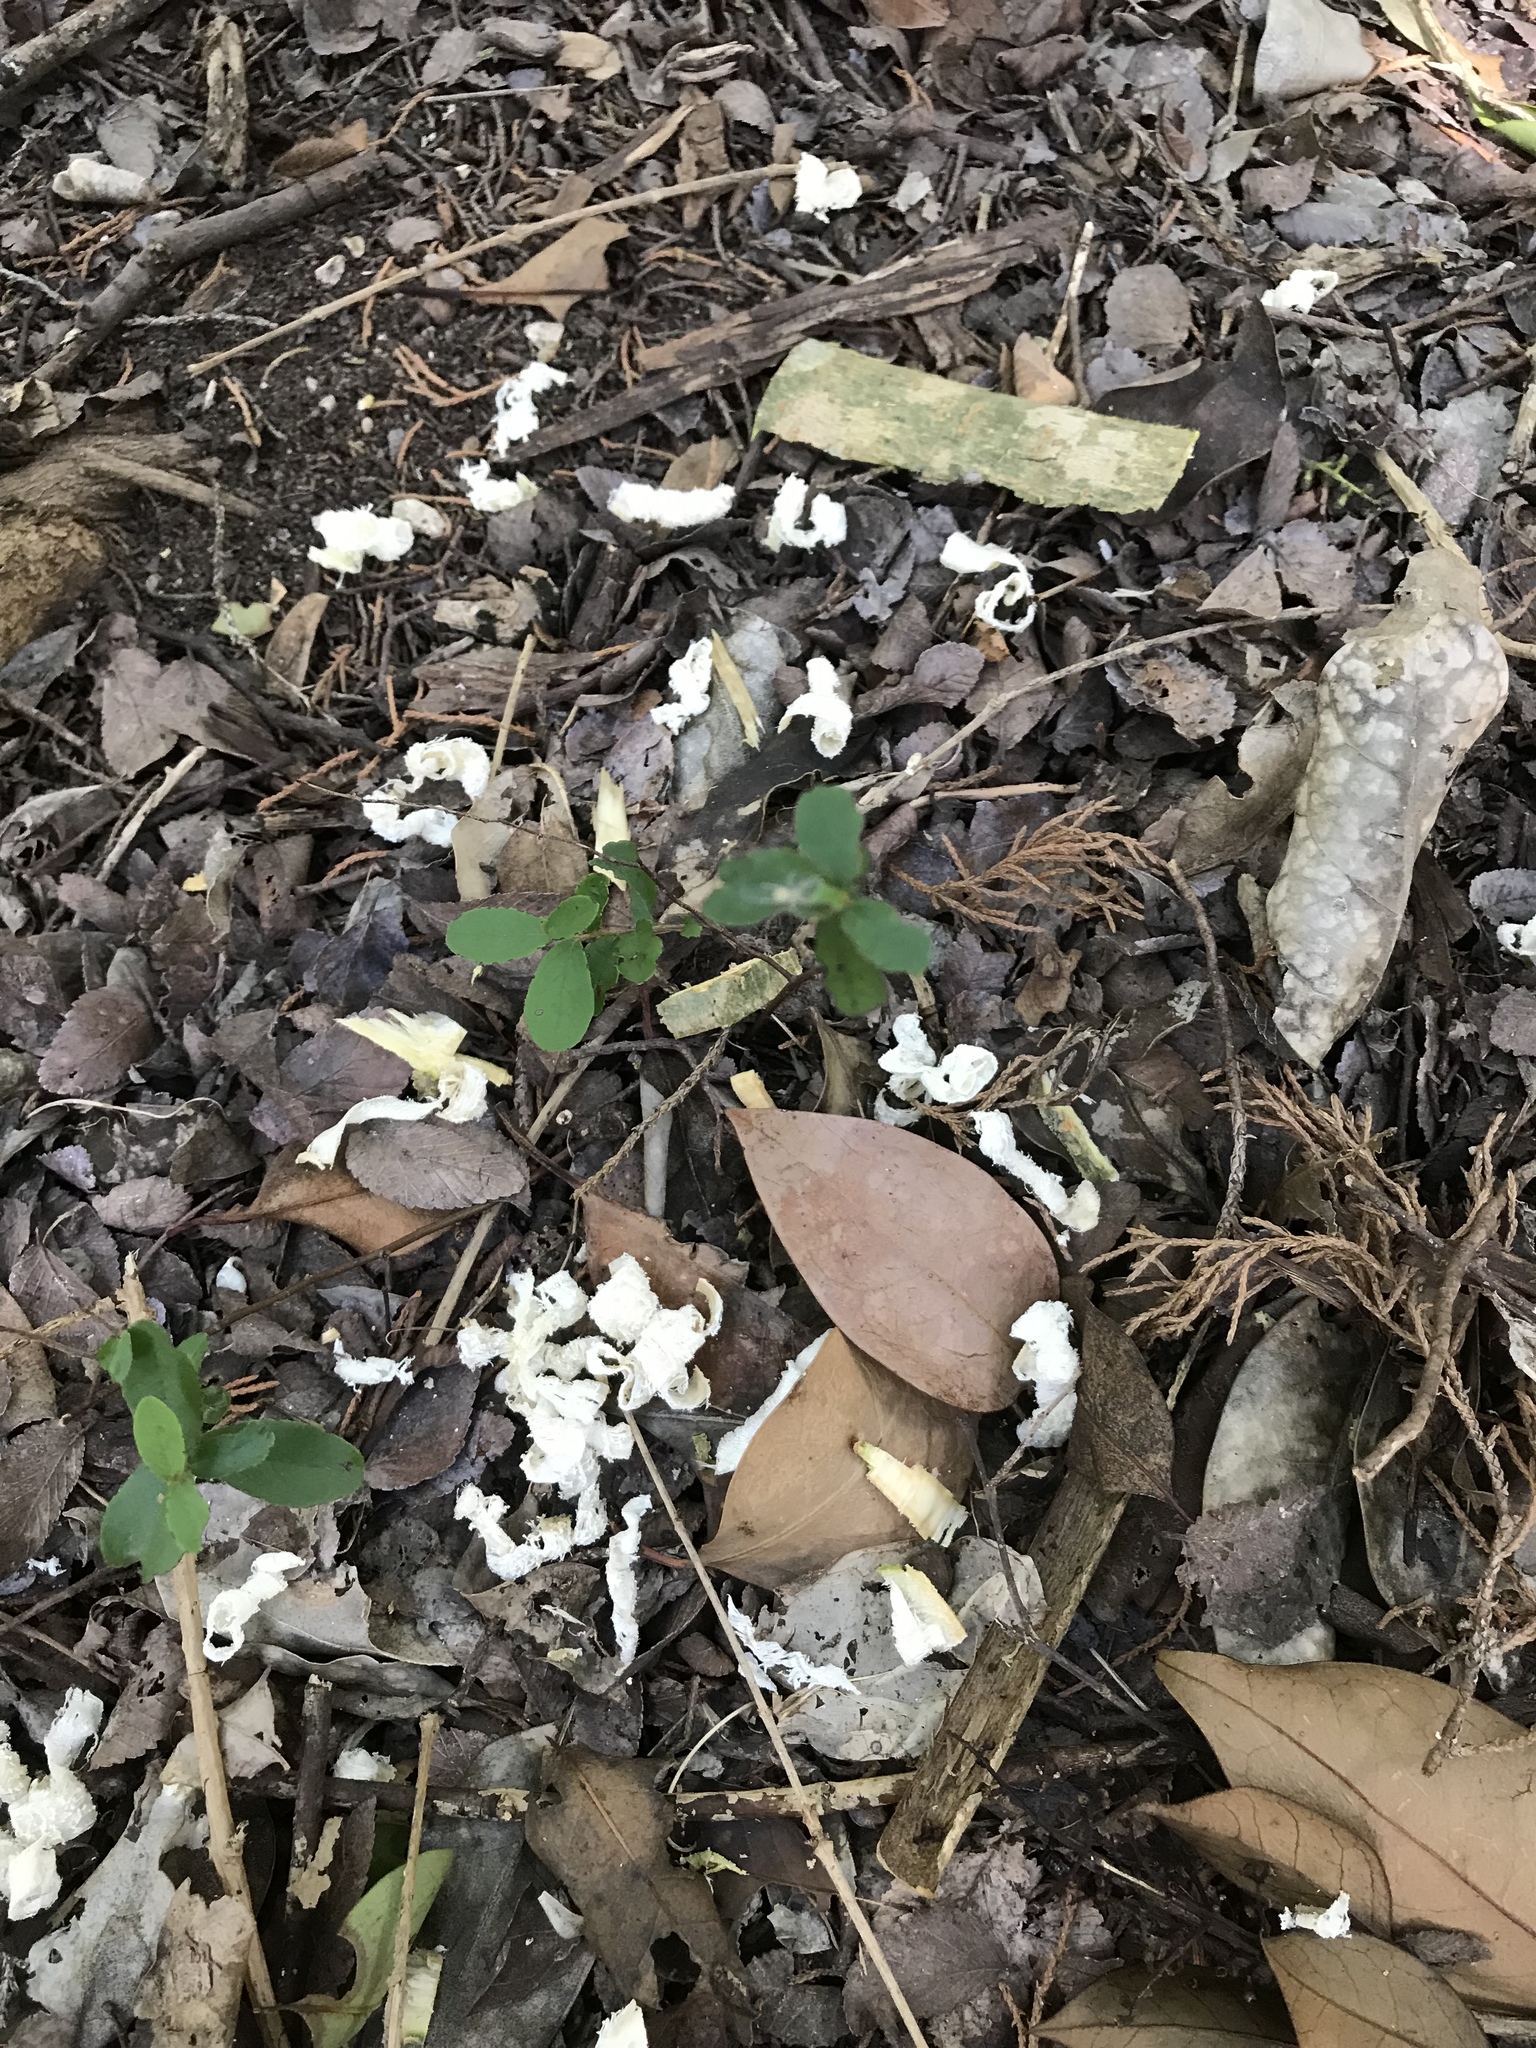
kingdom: Plantae
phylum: Tracheophyta
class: Magnoliopsida
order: Ericales
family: Ebenaceae
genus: Diospyros
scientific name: Diospyros texana
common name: Texas persimmon
